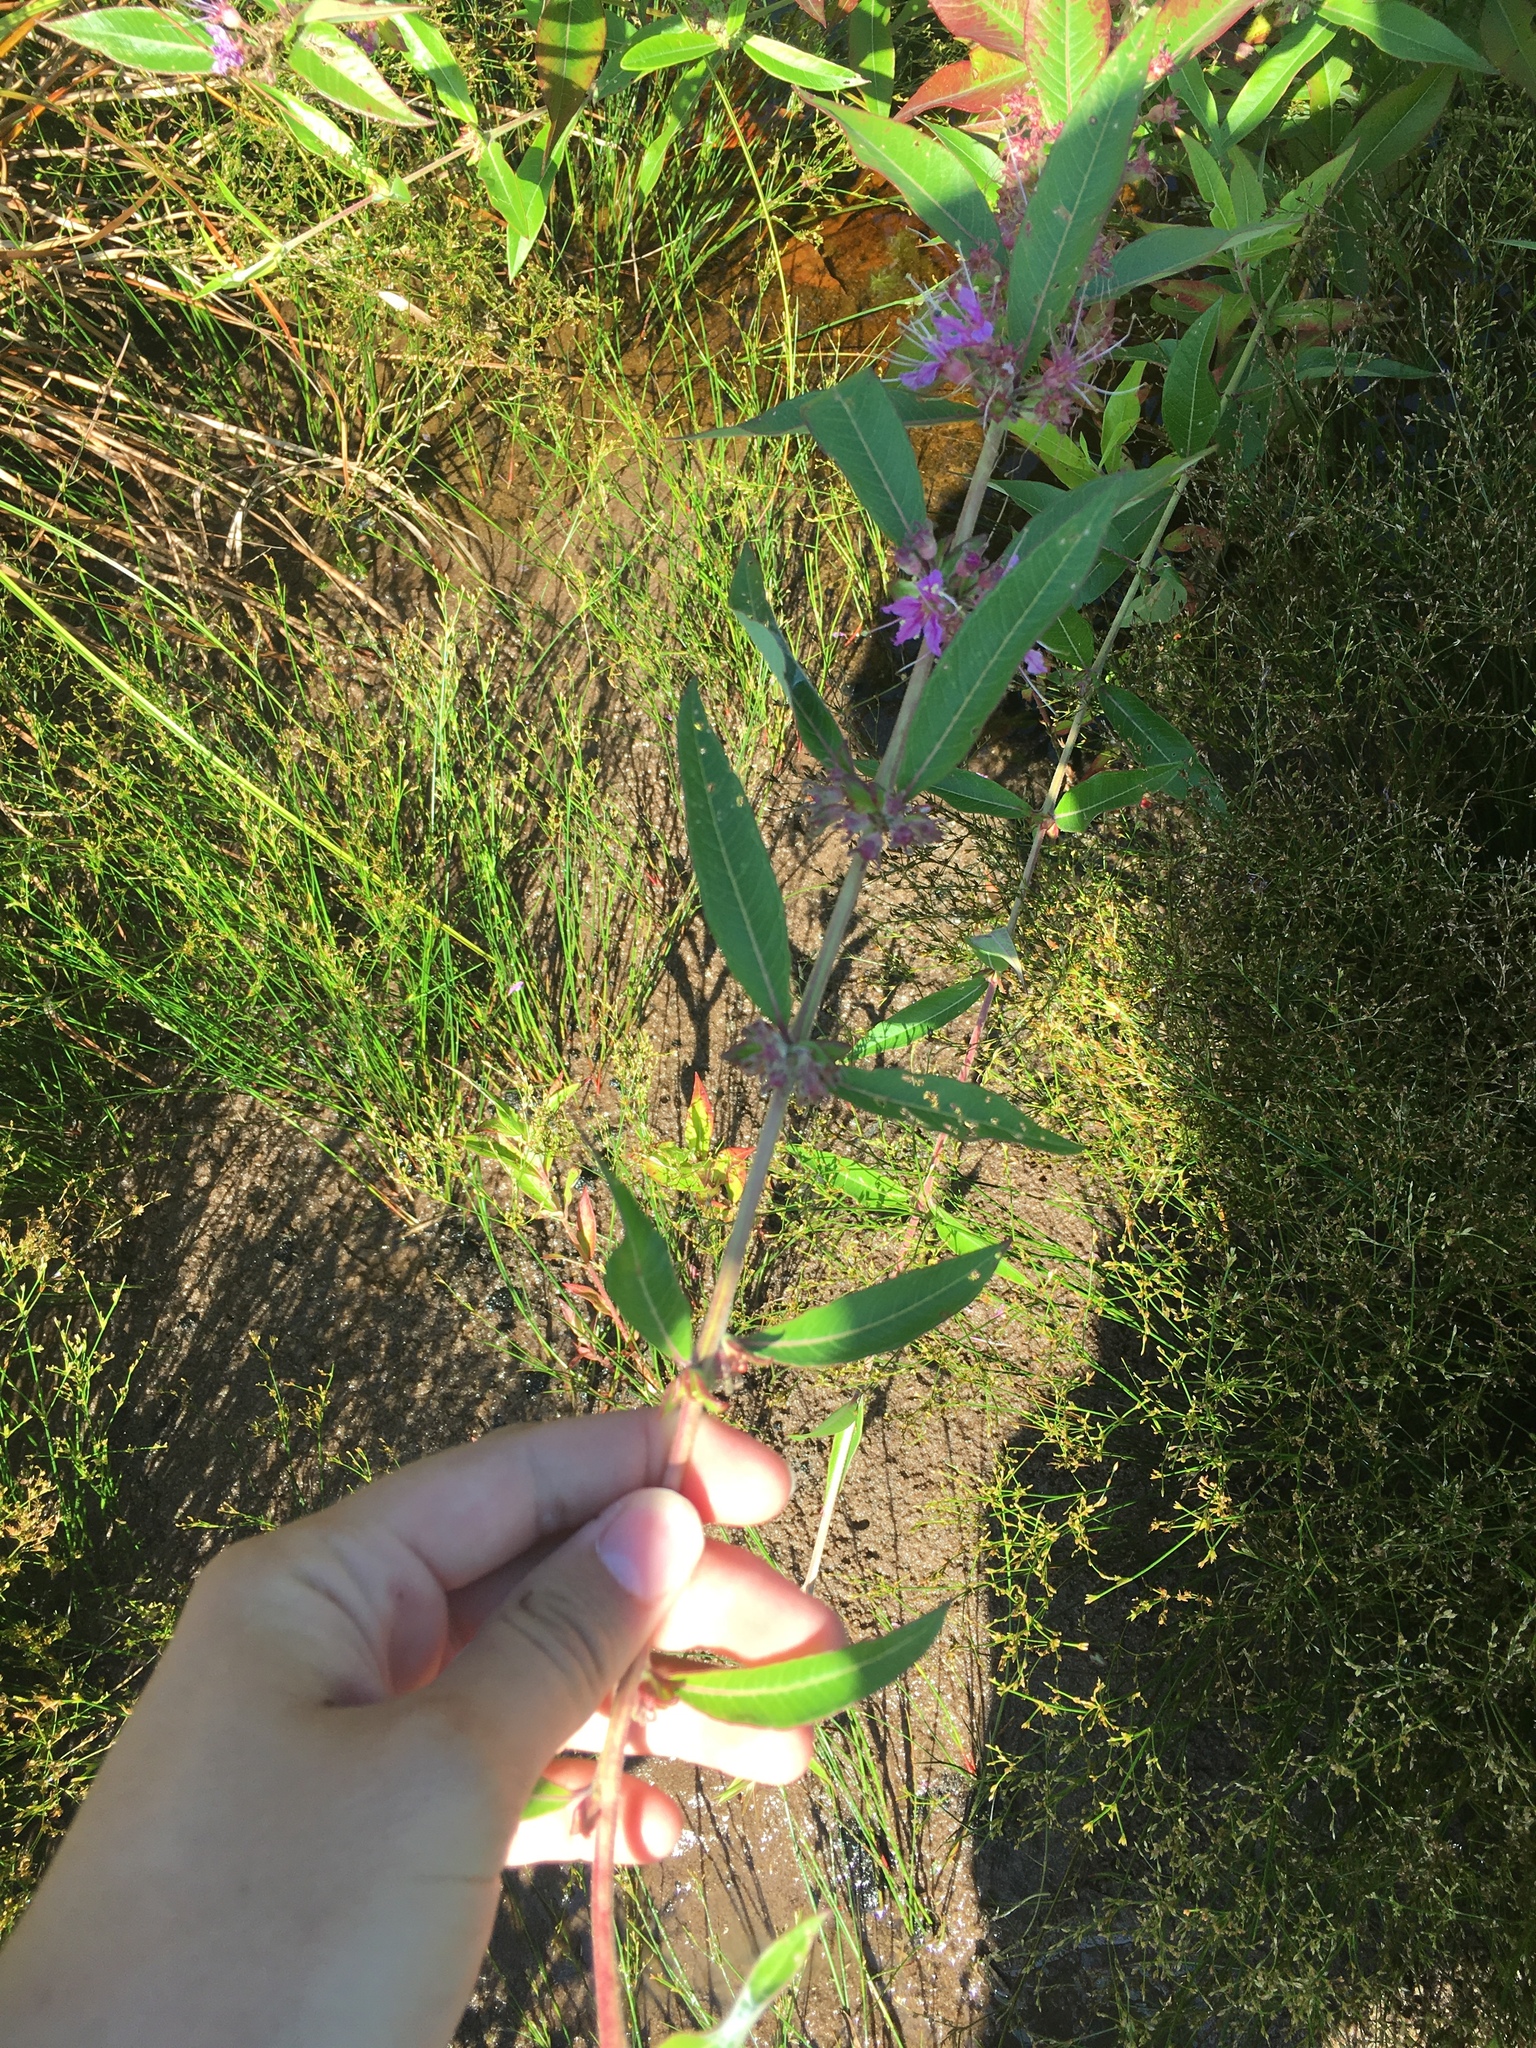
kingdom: Plantae
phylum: Tracheophyta
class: Magnoliopsida
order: Myrtales
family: Lythraceae
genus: Decodon
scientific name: Decodon verticillatus
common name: Hairy swamp loosestrife
